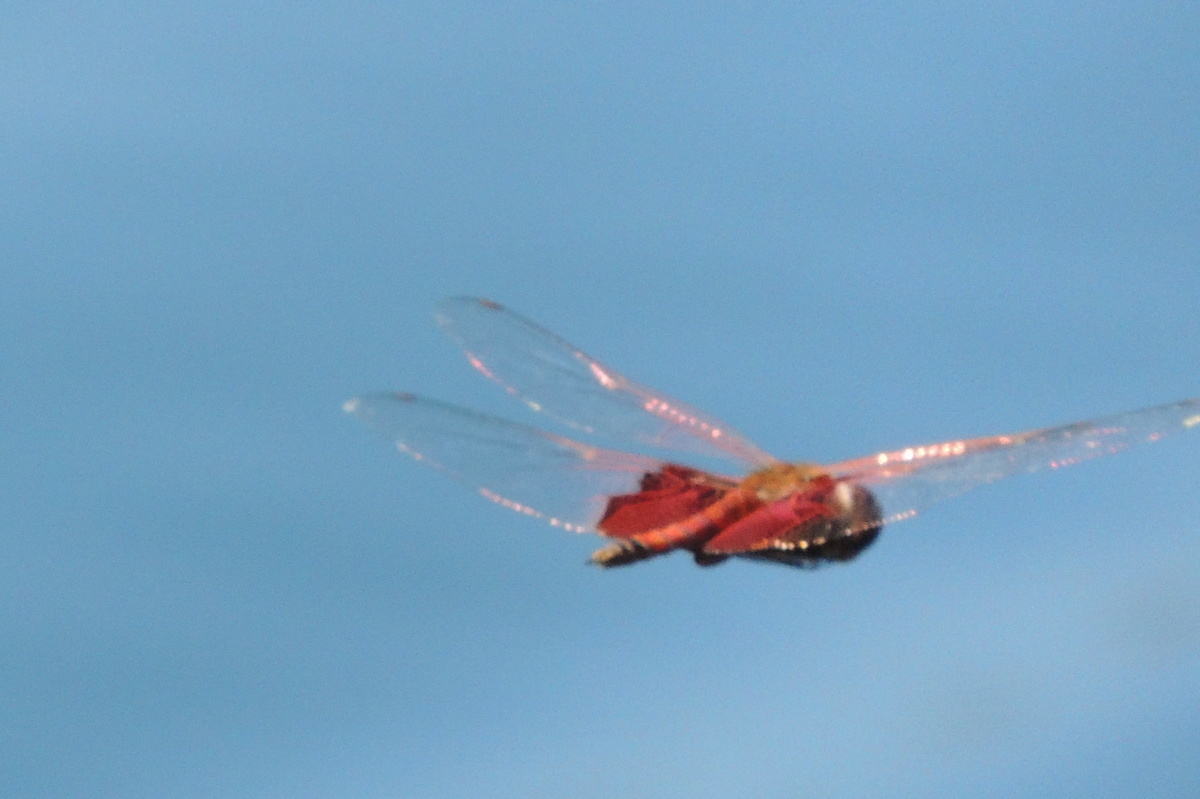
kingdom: Animalia
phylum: Arthropoda
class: Insecta
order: Odonata
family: Libellulidae
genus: Tramea
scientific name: Tramea carolina
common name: Carolina saddlebags
